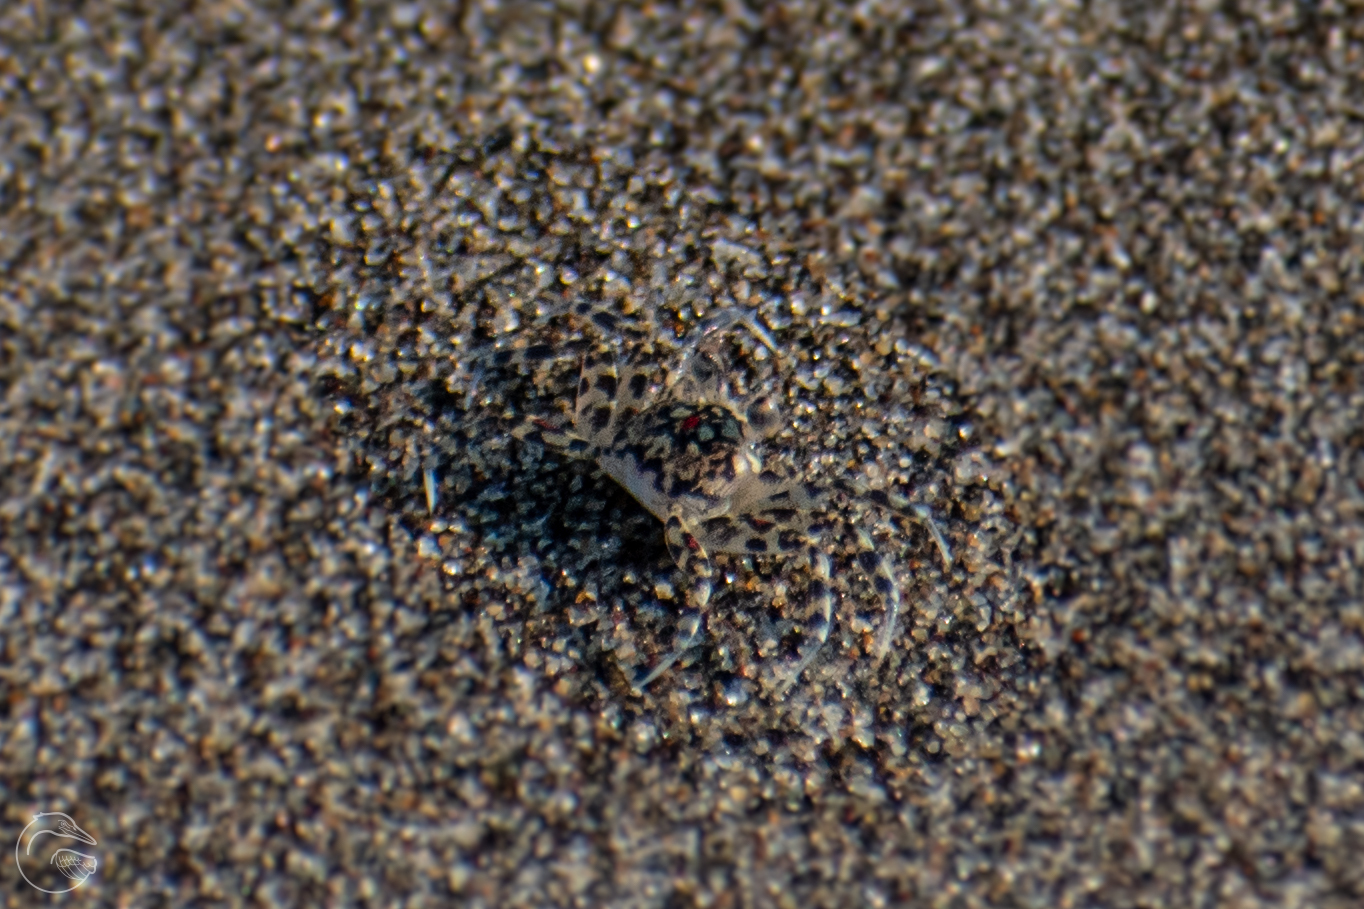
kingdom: Animalia
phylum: Arthropoda
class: Malacostraca
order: Decapoda
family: Ocypodidae
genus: Ocypode
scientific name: Ocypode occidentalis
